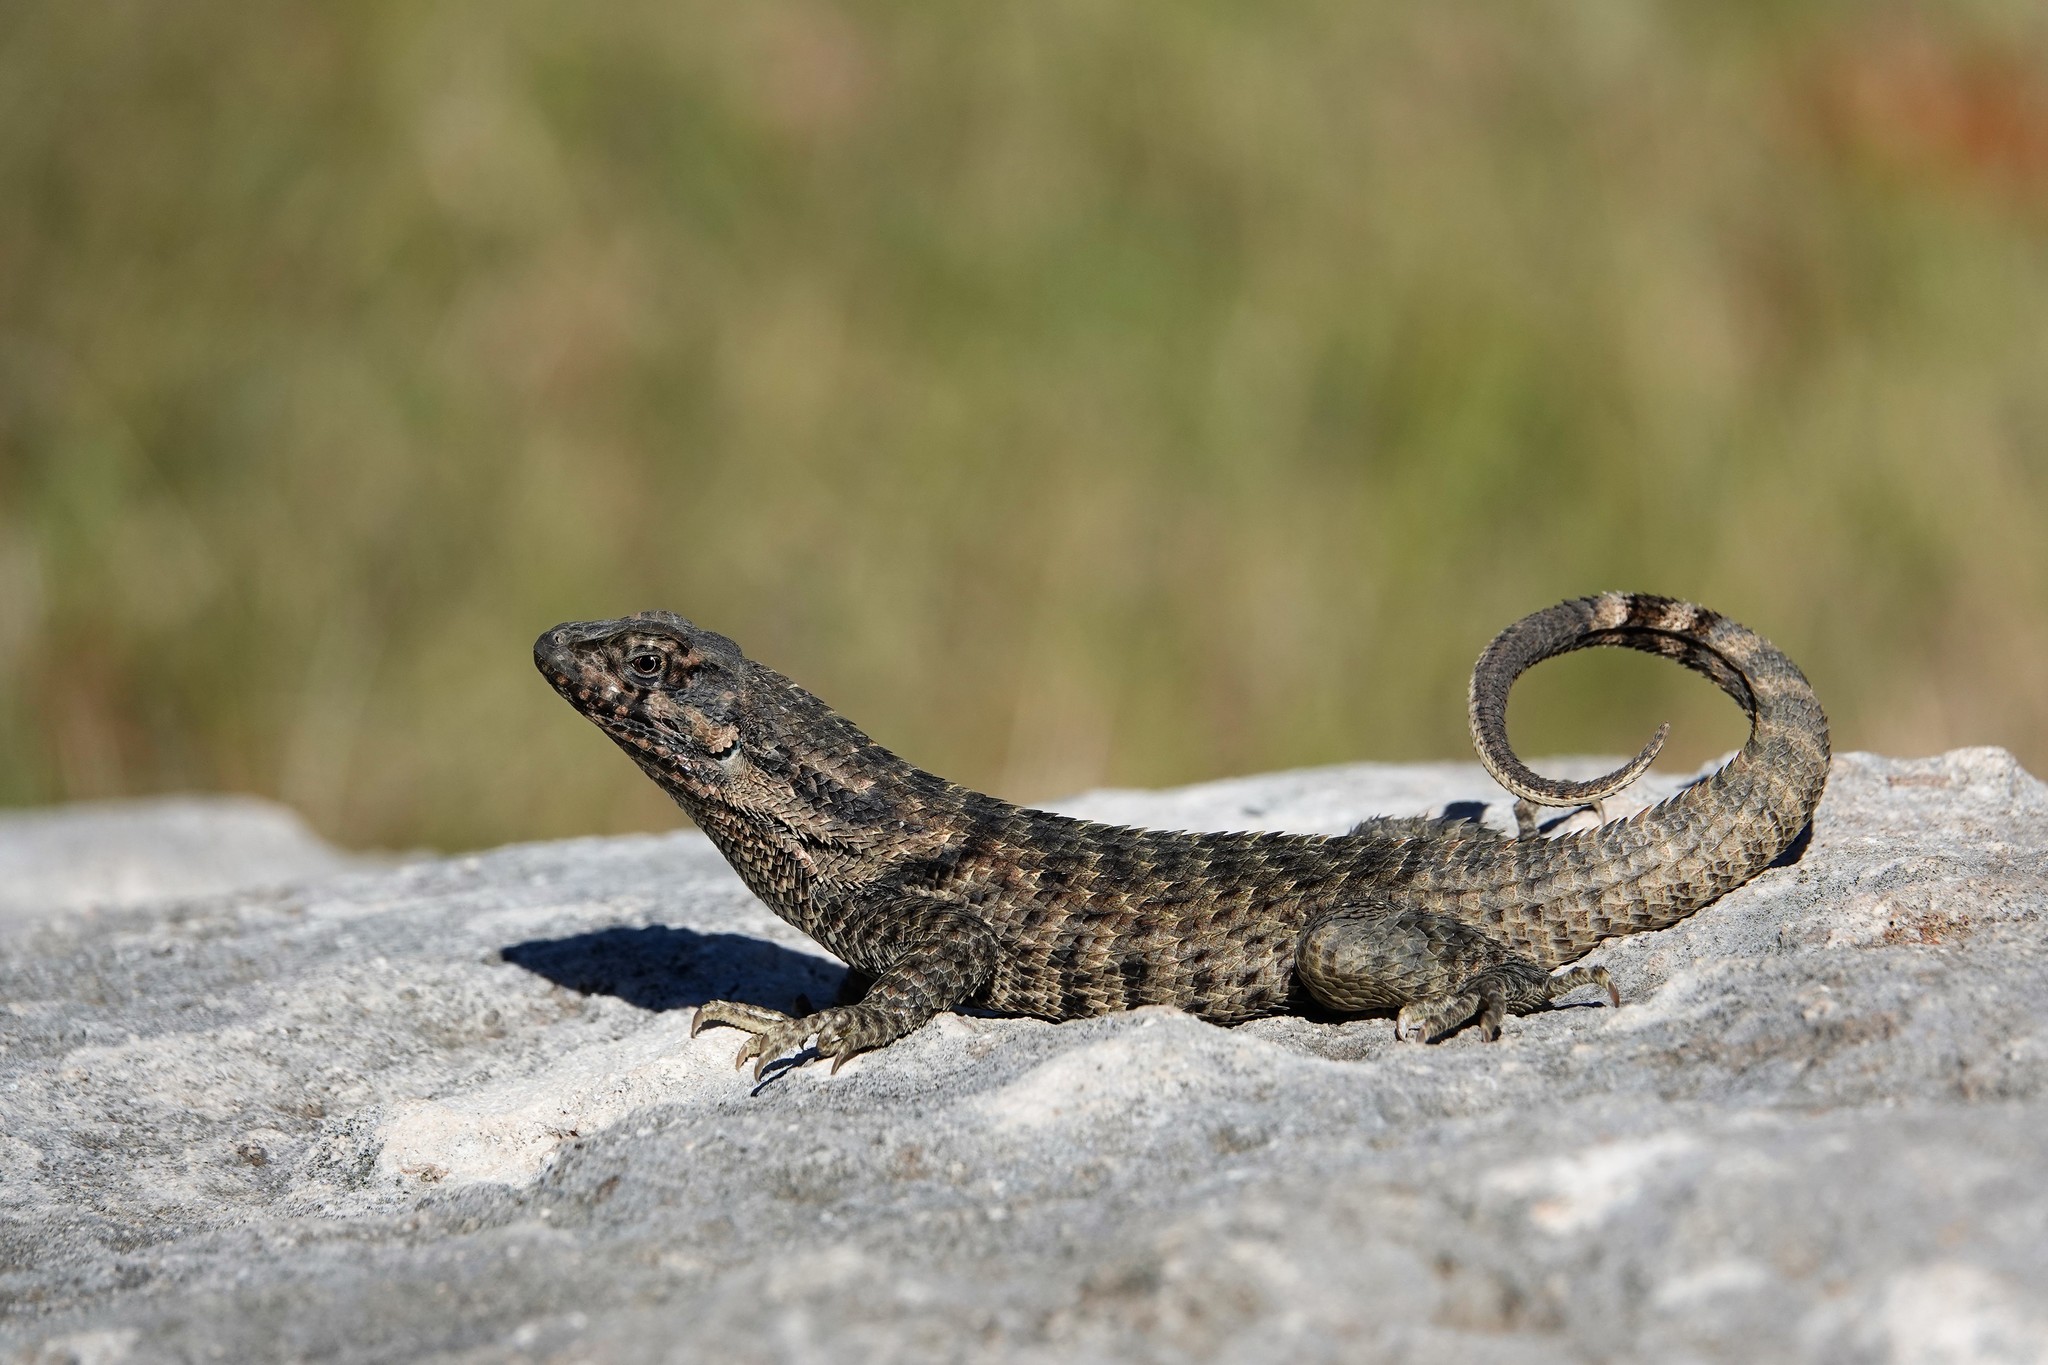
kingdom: Animalia
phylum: Chordata
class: Squamata
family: Leiocephalidae
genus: Leiocephalus
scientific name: Leiocephalus carinatus
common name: Northern curly-tailed lizard
